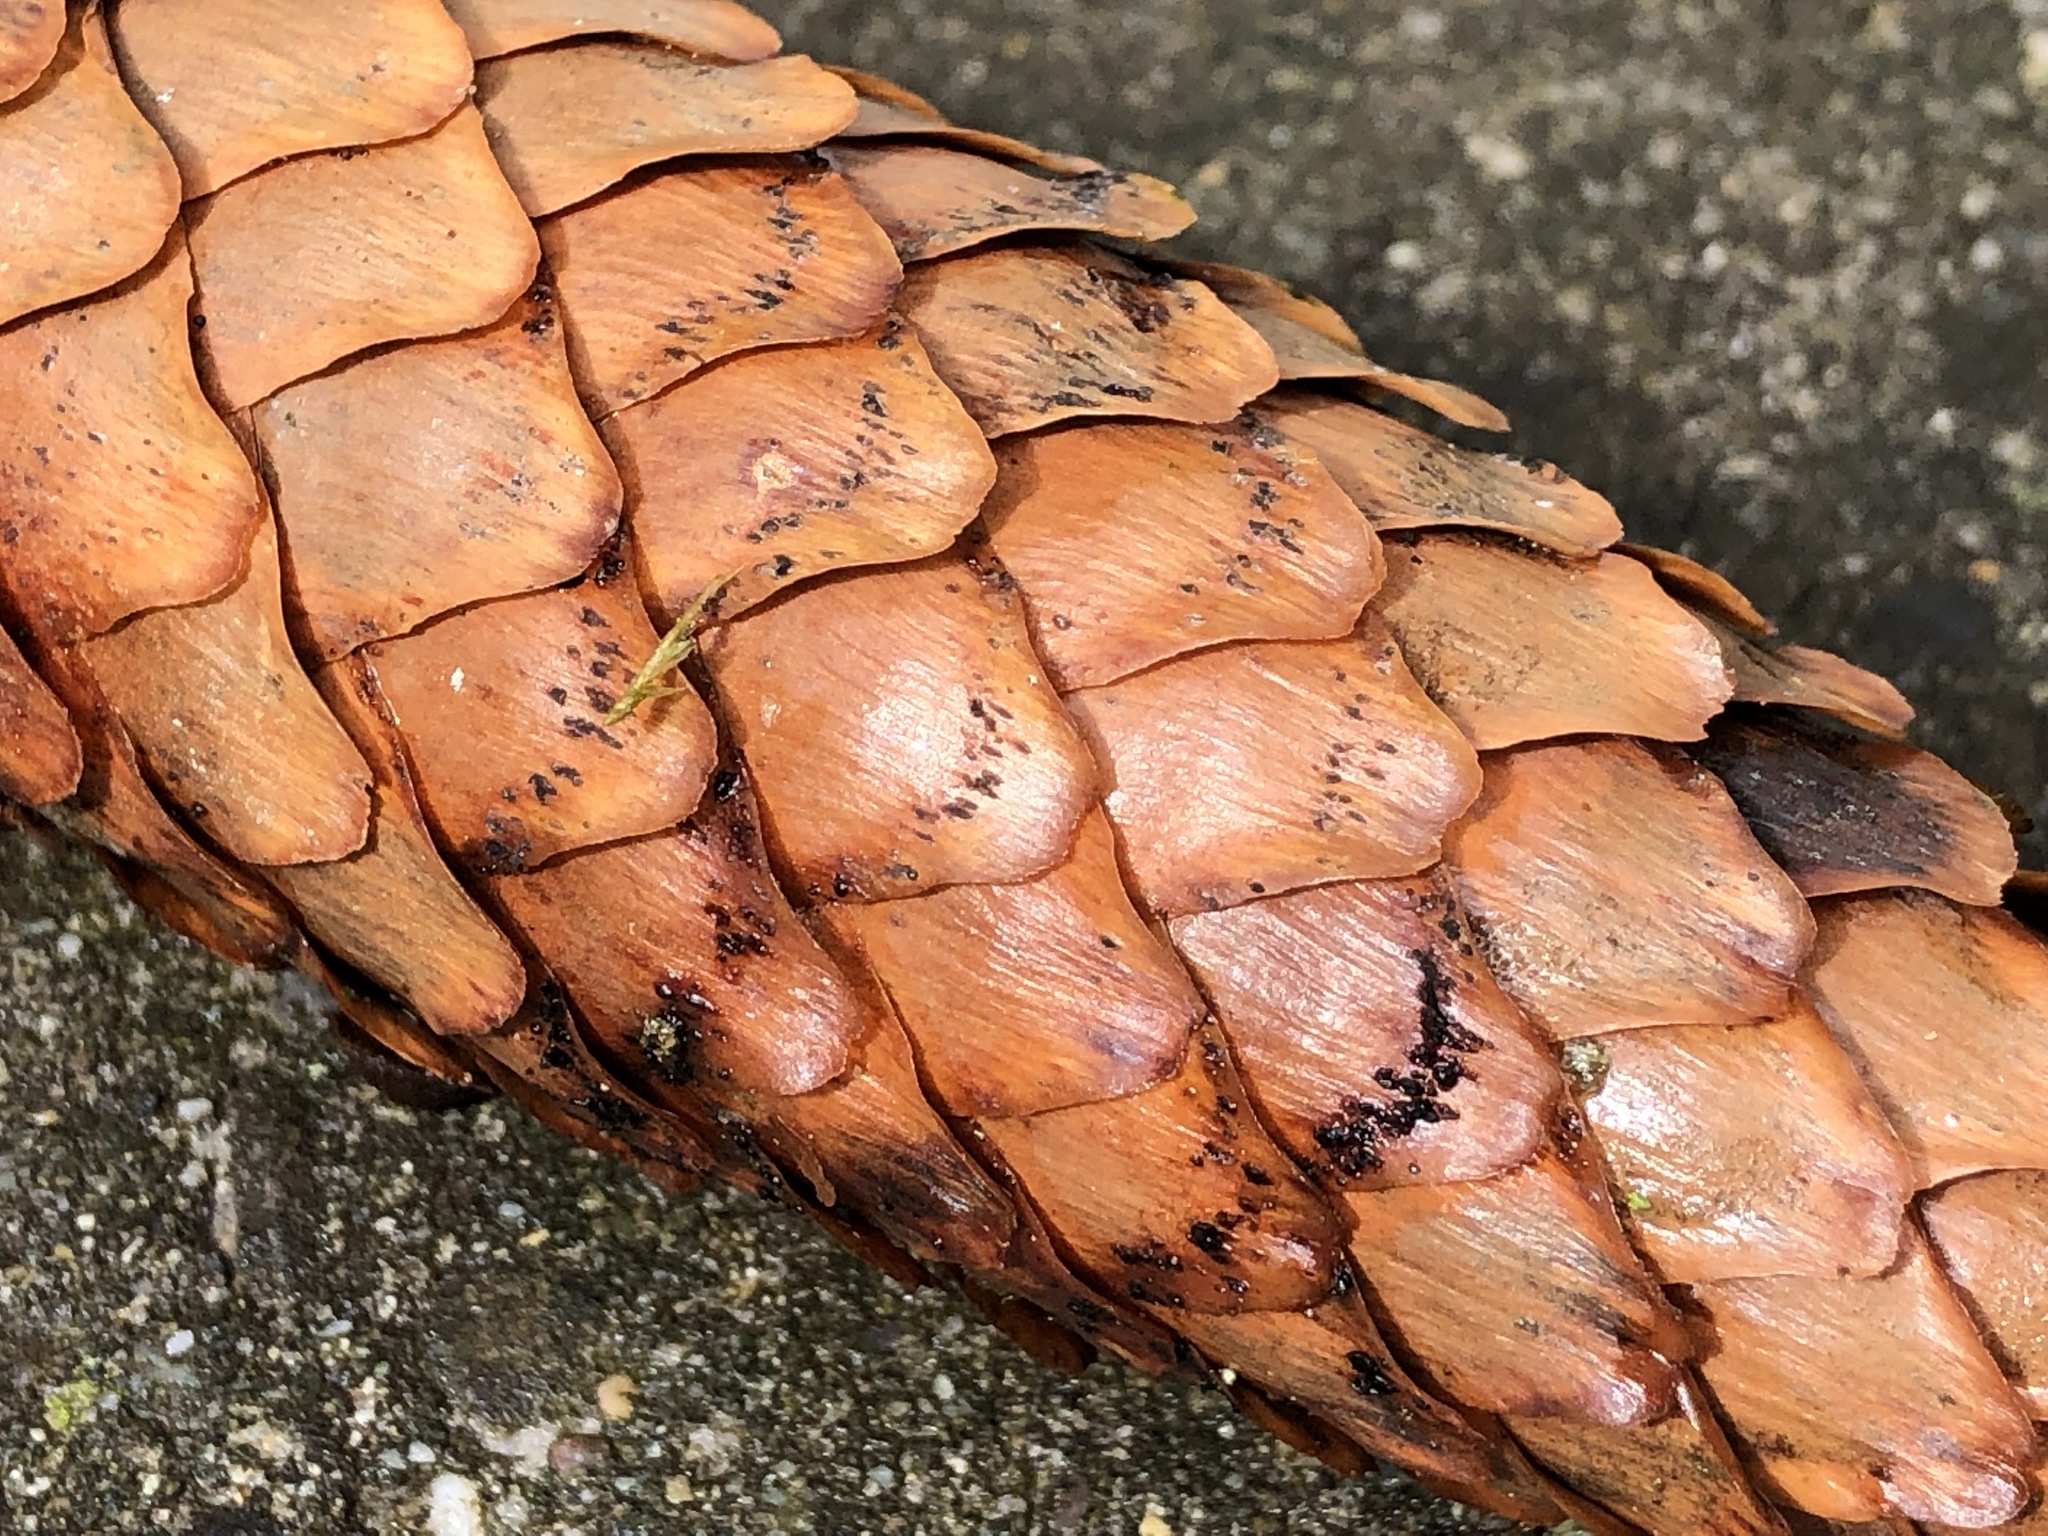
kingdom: Fungi
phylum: Ascomycota
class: Dothideomycetes
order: Pleosporales
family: Melanommataceae
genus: Phragmotrichum
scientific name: Phragmotrichum chailletii
